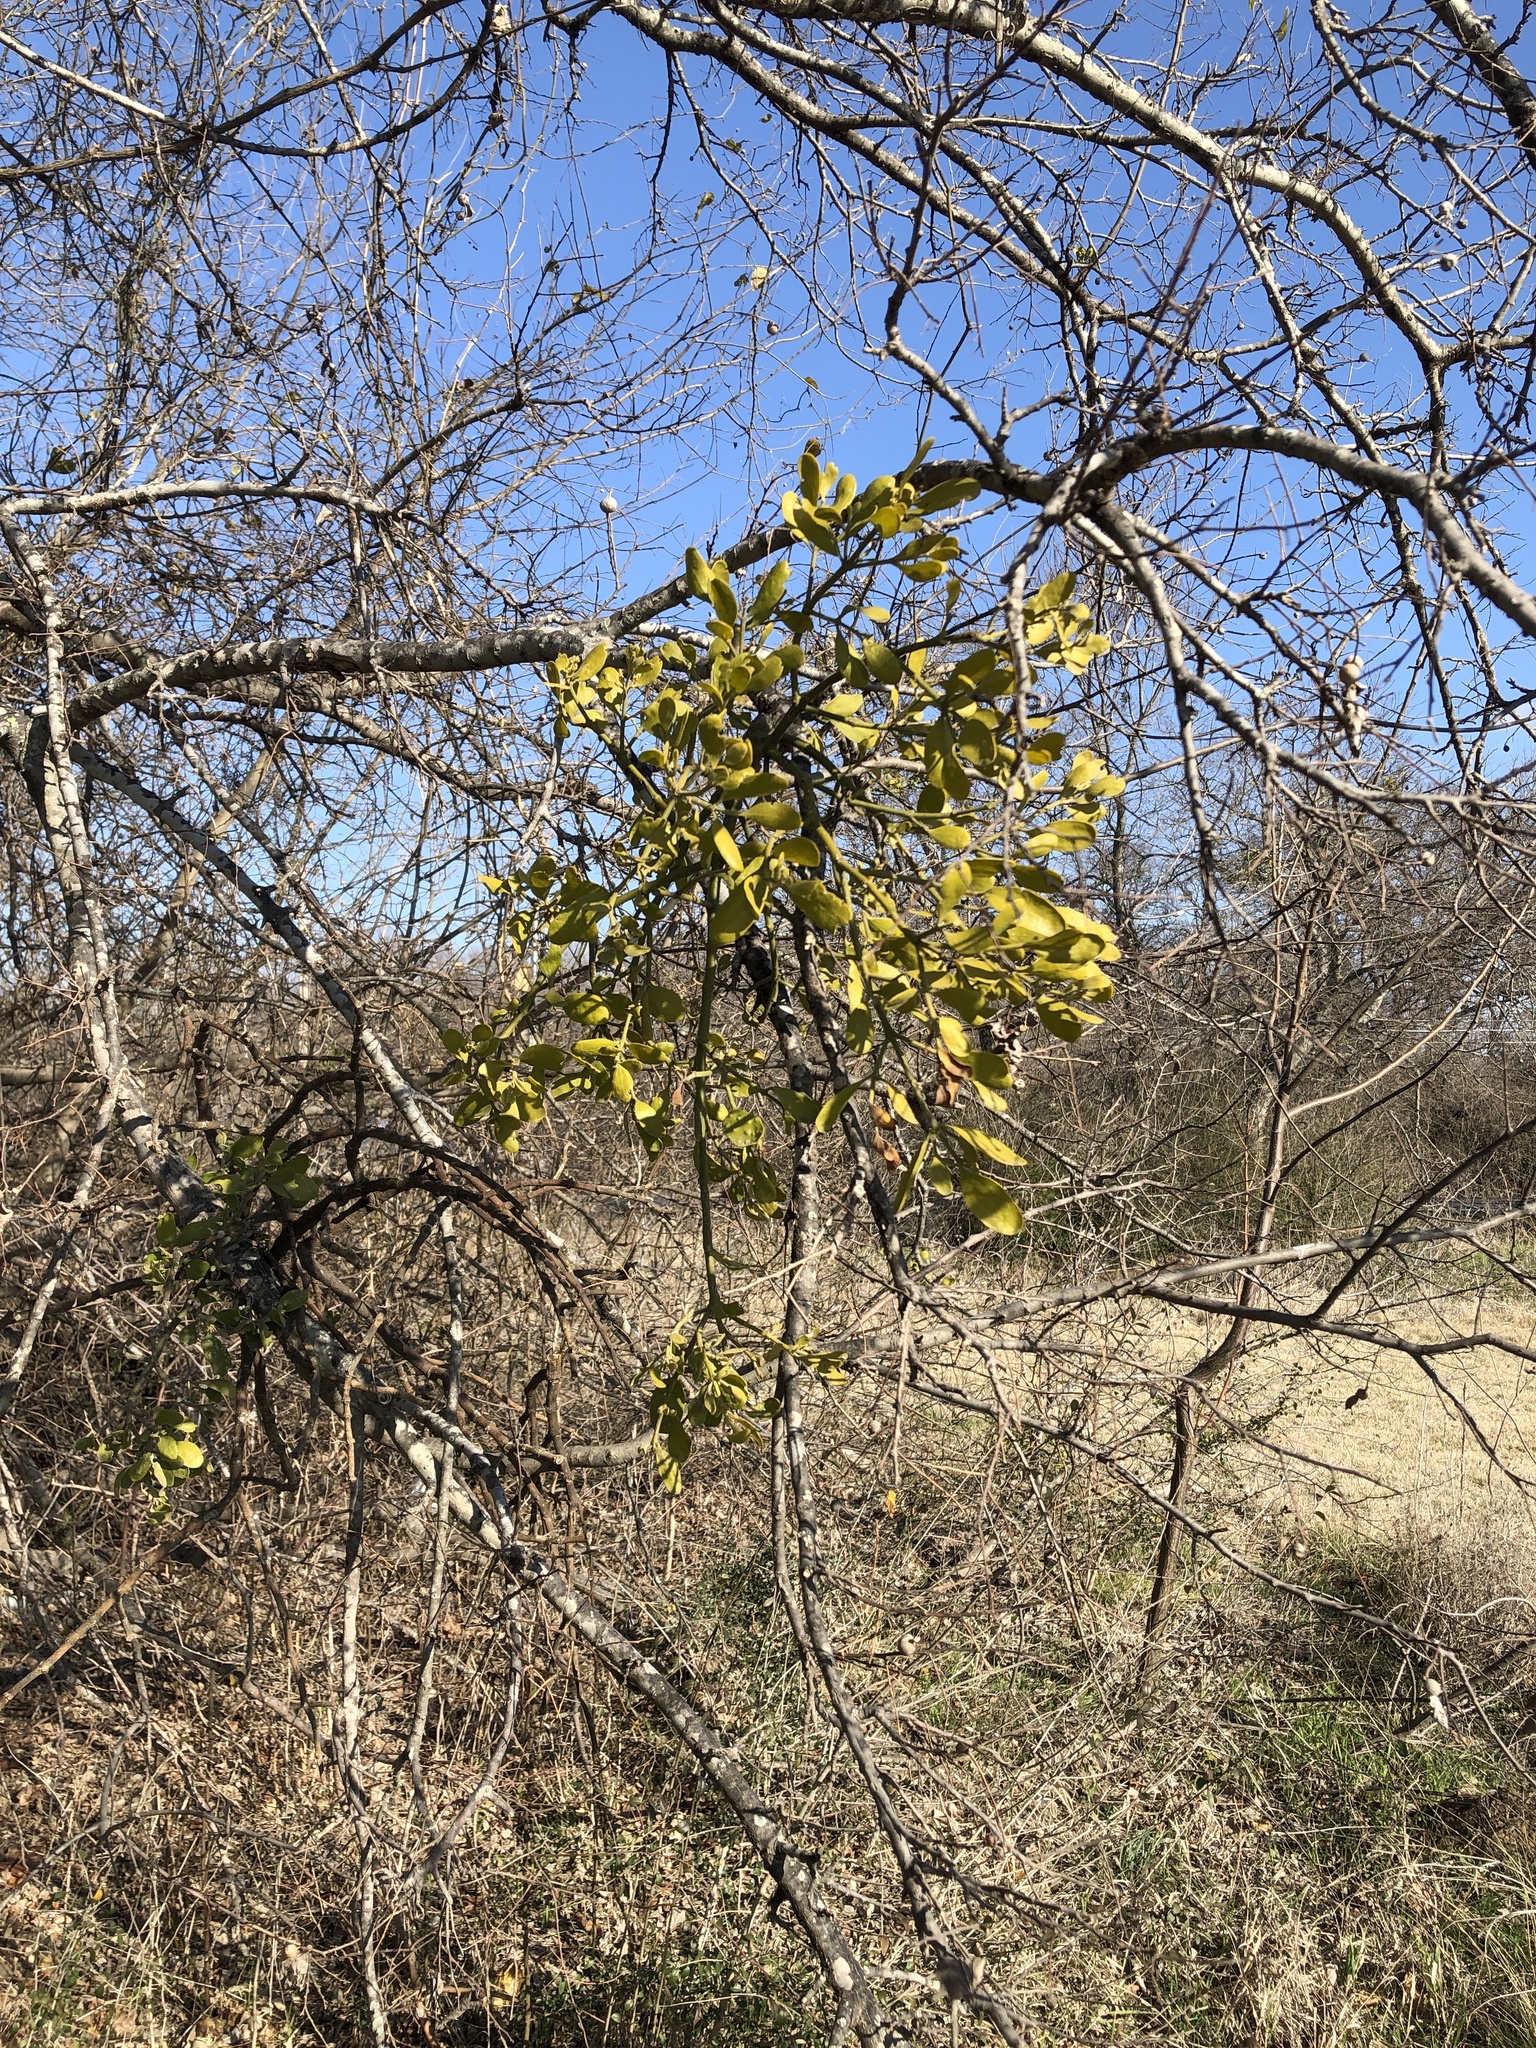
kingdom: Plantae
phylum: Tracheophyta
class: Magnoliopsida
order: Santalales
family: Viscaceae
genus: Phoradendron
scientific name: Phoradendron leucarpum
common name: Pacific mistletoe
